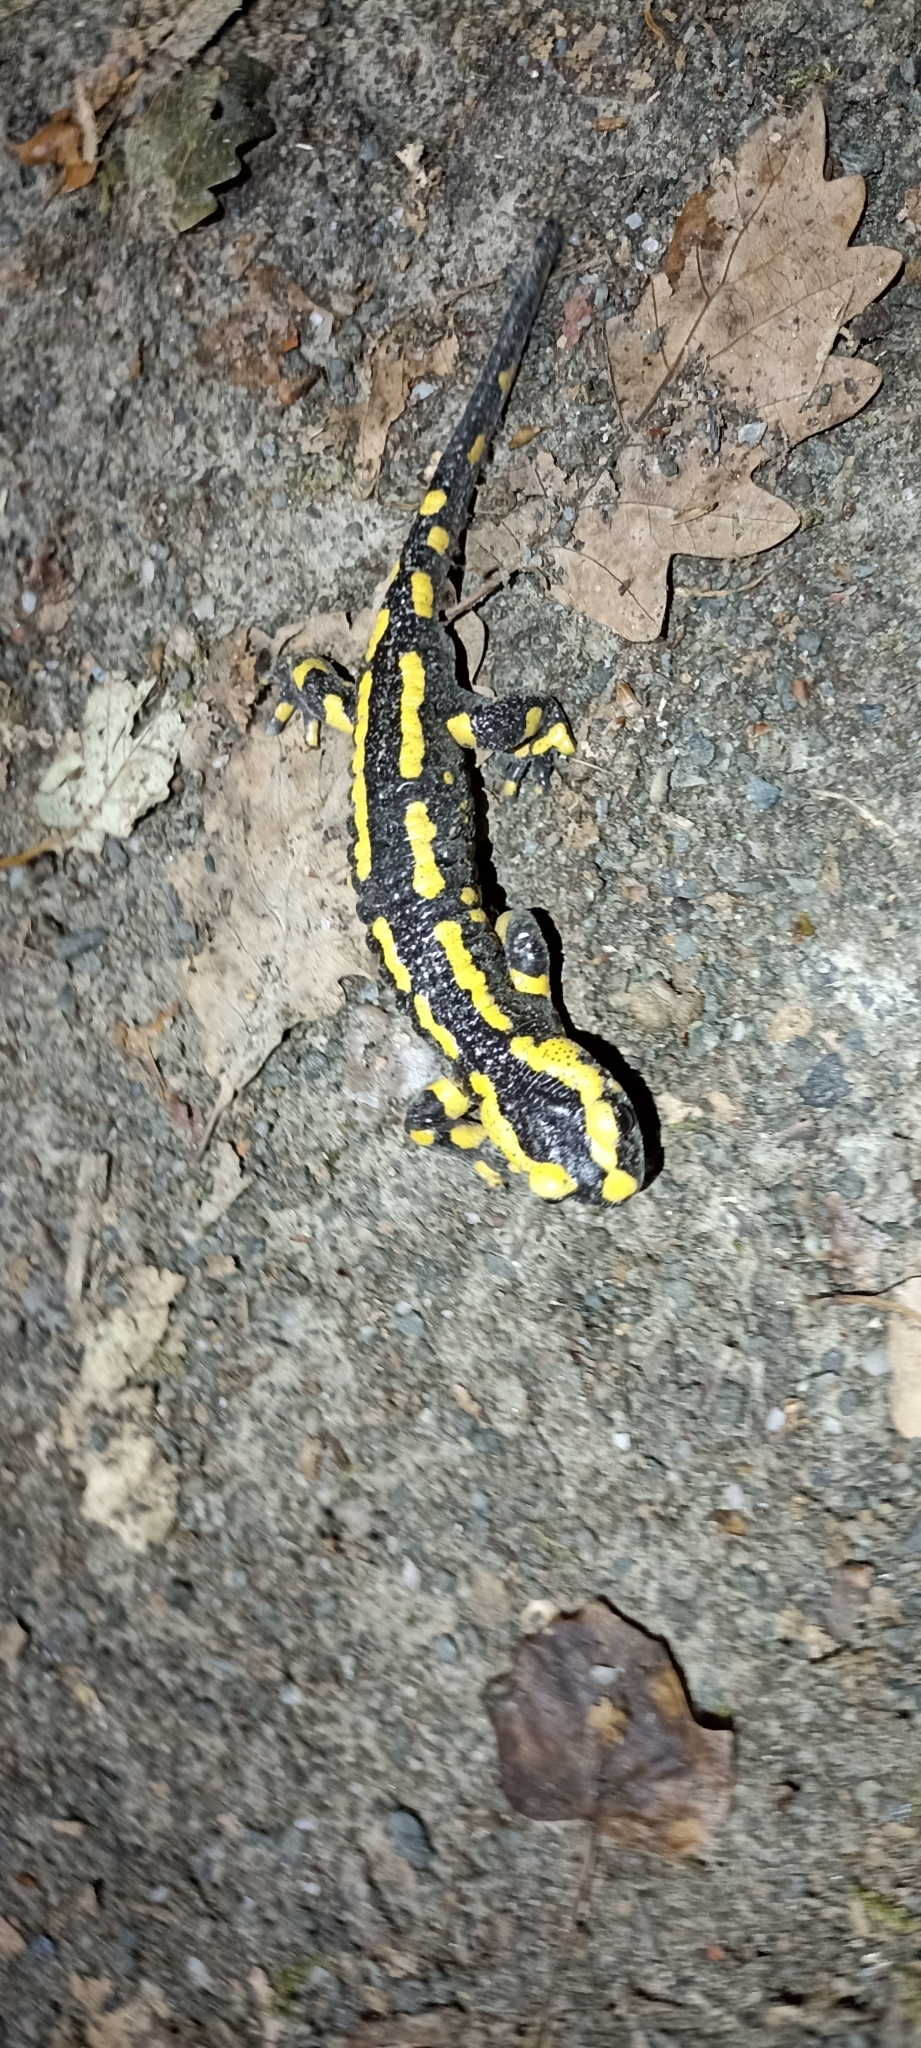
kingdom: Animalia
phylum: Chordata
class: Amphibia
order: Caudata
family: Salamandridae
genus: Salamandra
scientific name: Salamandra salamandra
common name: Fire salamander
